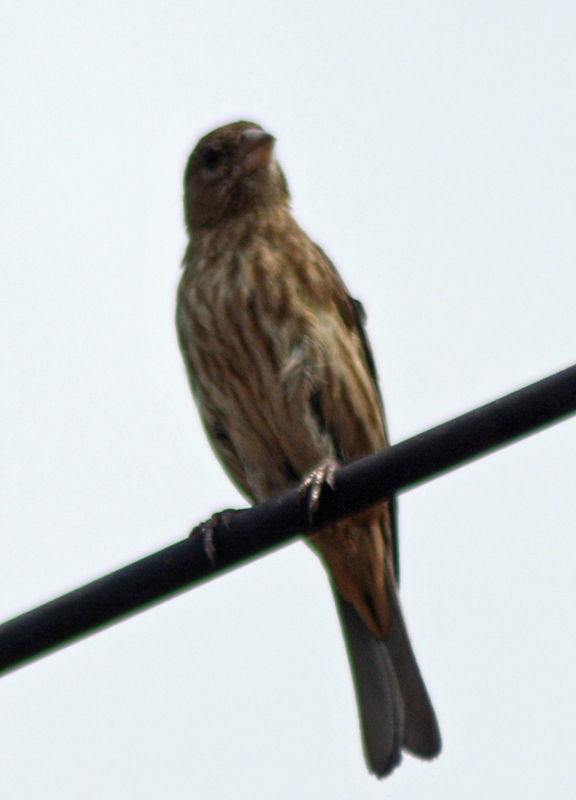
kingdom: Animalia
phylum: Chordata
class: Aves
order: Passeriformes
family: Fringillidae
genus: Haemorhous
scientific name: Haemorhous mexicanus
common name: House finch
